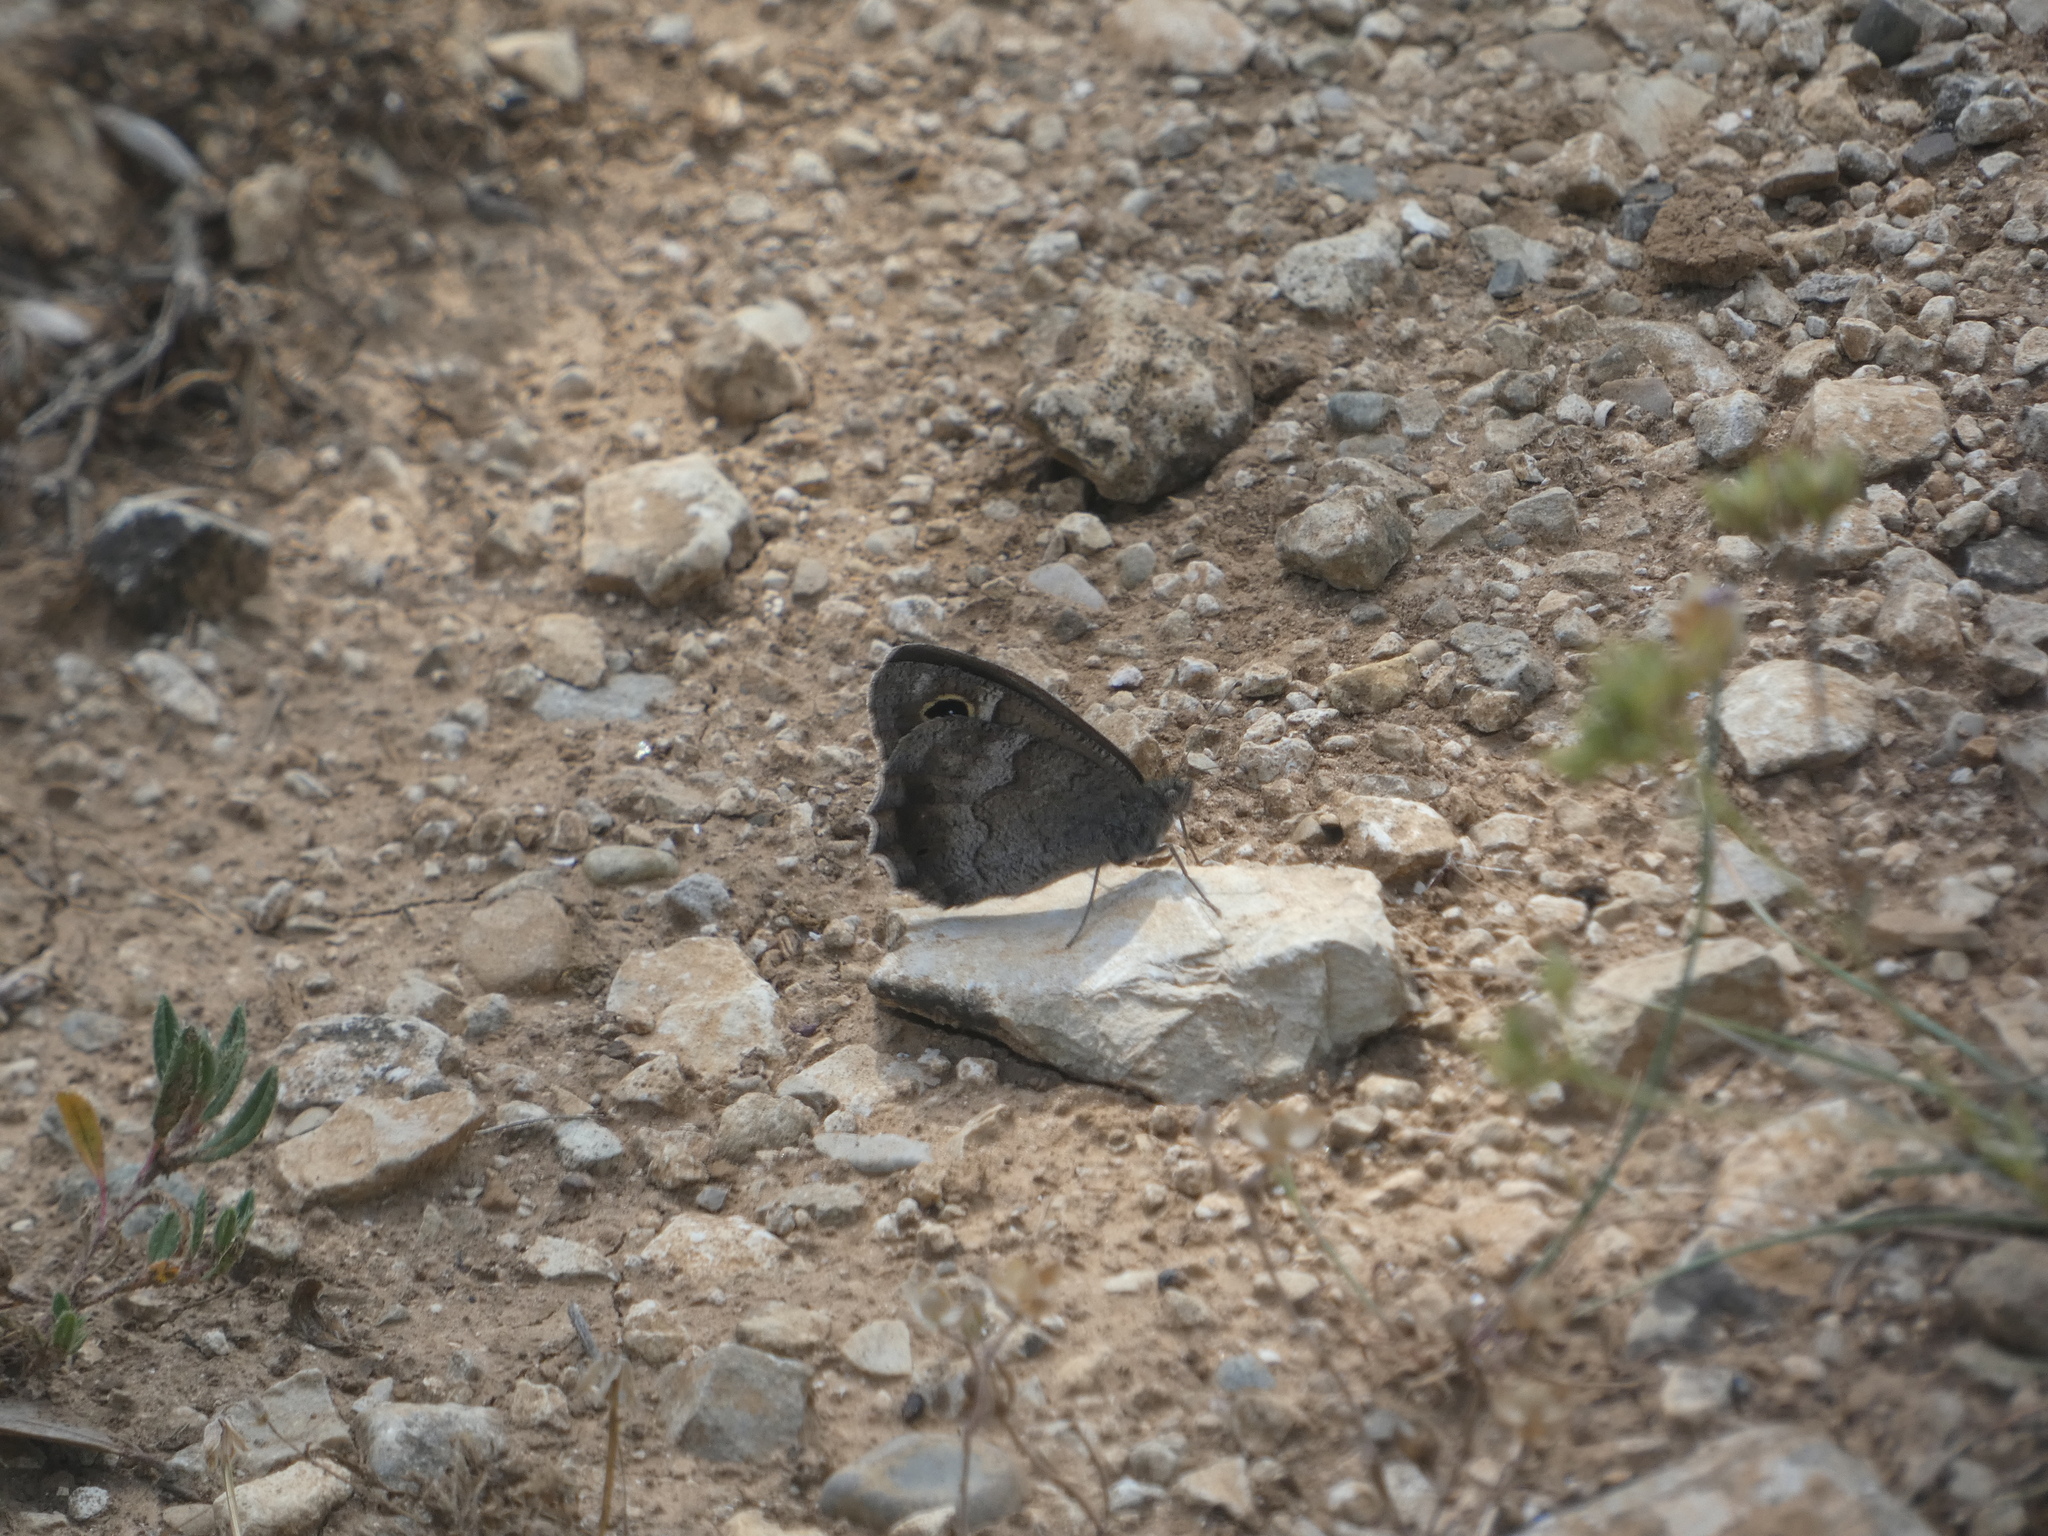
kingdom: Animalia
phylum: Arthropoda
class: Insecta
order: Lepidoptera
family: Nymphalidae
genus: Hipparchia
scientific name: Hipparchia statilinus
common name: Tree grayling
